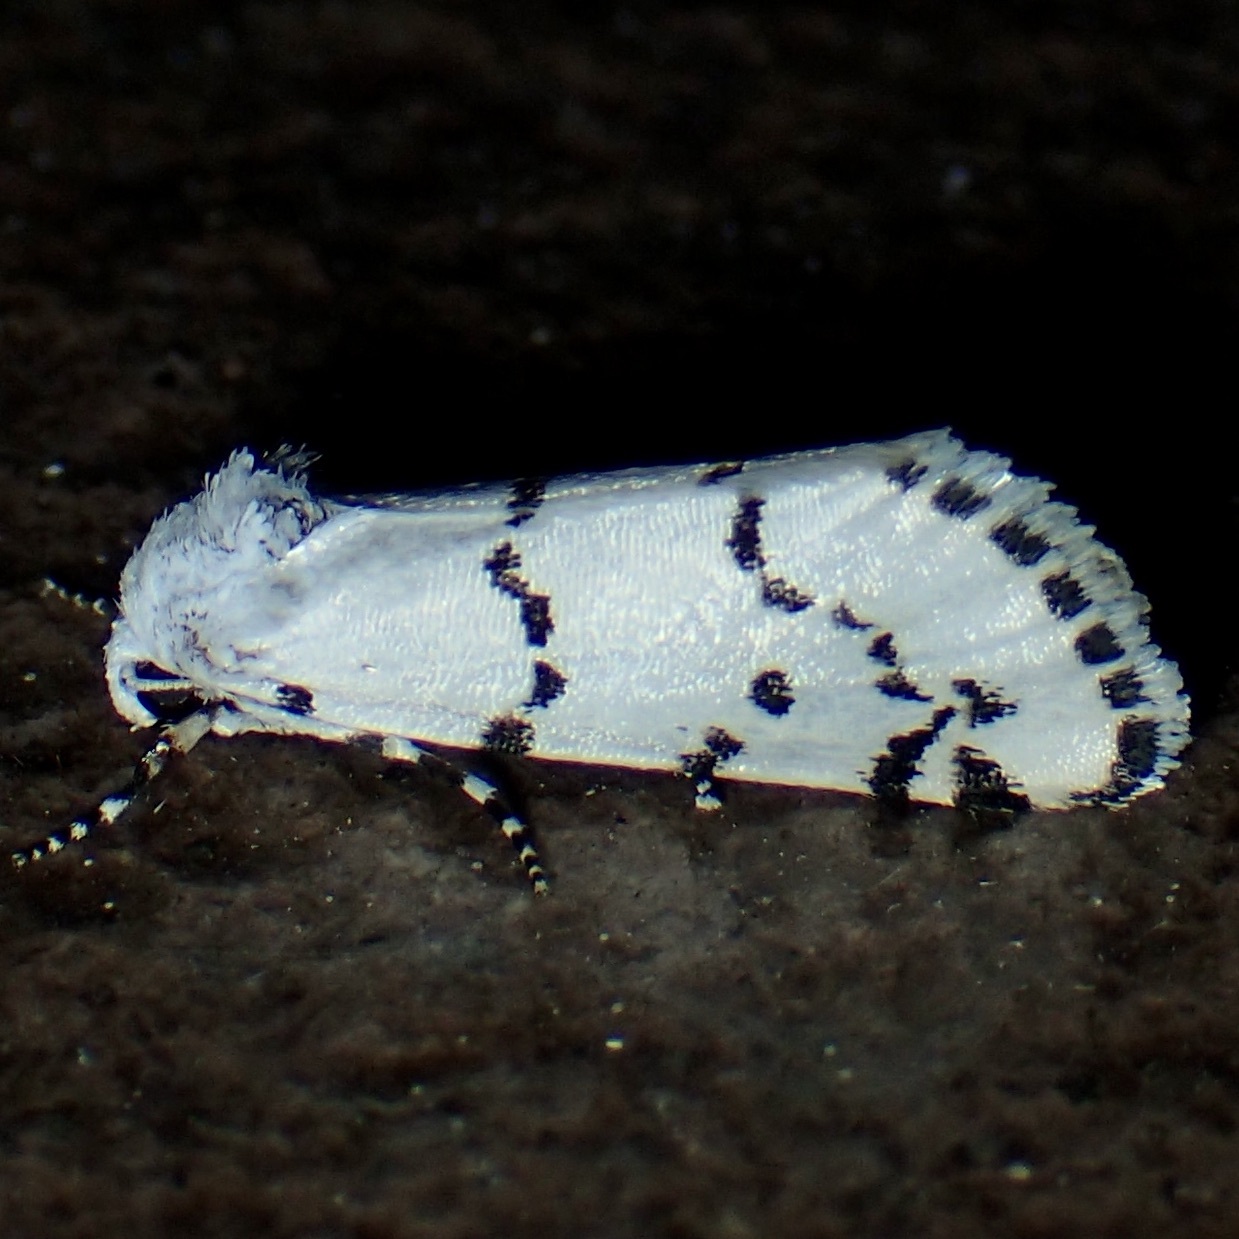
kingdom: Animalia
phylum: Arthropoda
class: Insecta
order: Lepidoptera
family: Noctuidae
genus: Grotella
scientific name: Grotella binda
